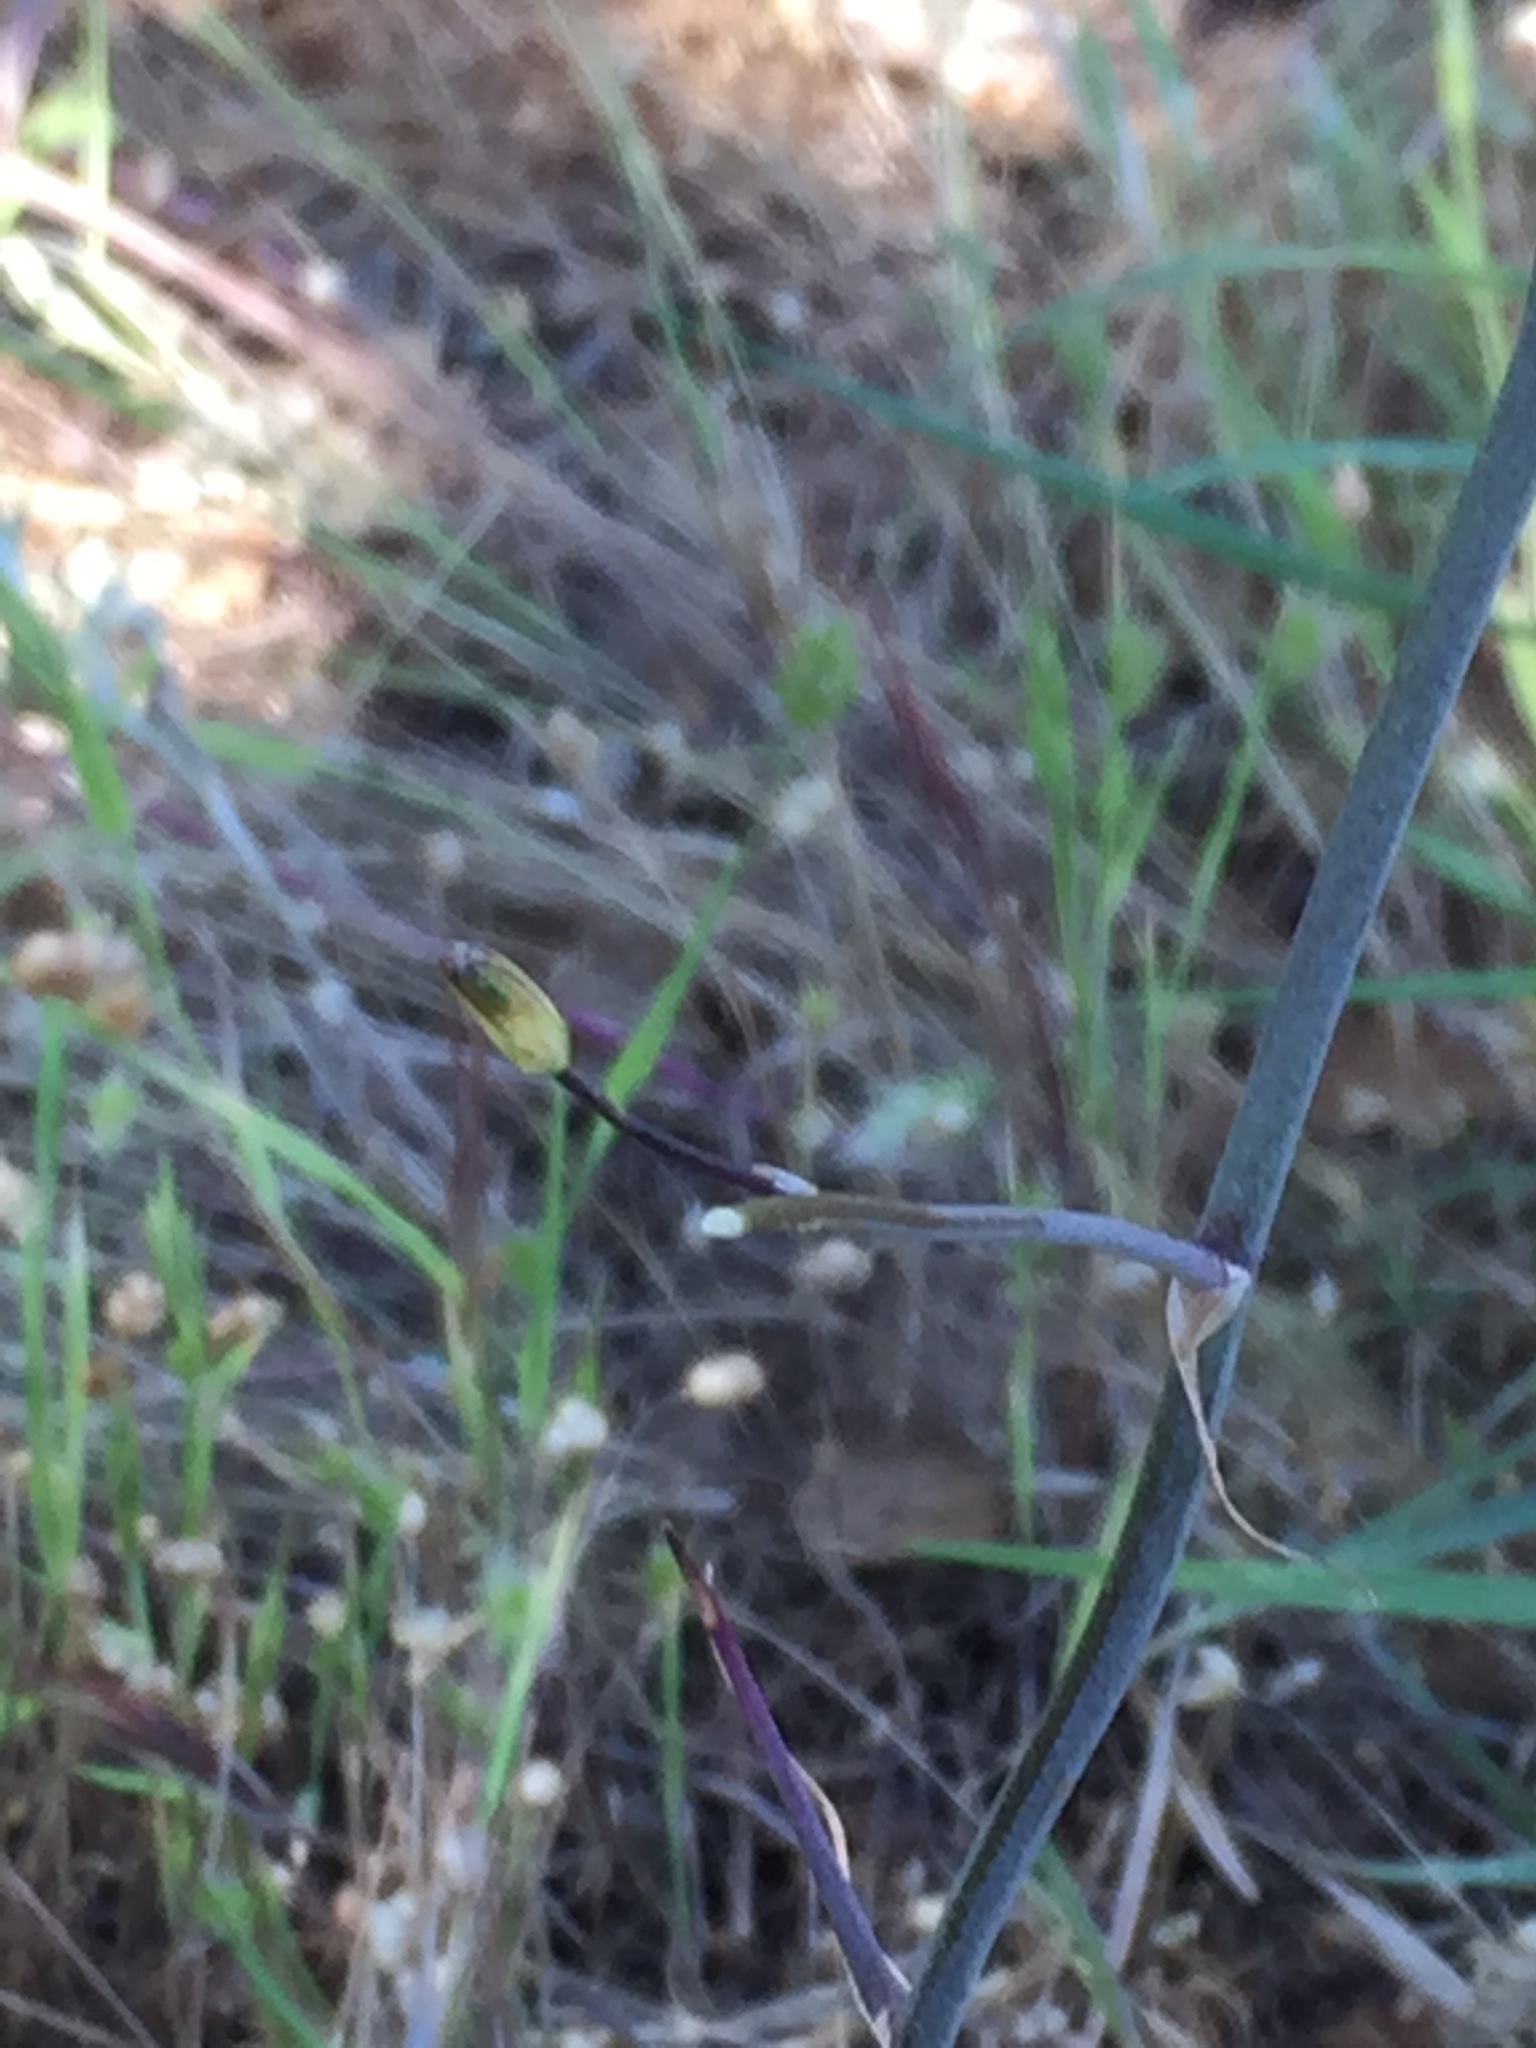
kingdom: Plantae
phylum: Tracheophyta
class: Liliopsida
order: Asparagales
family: Asparagaceae
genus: Chlorogalum
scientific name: Chlorogalum pomeridianum
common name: Amole
